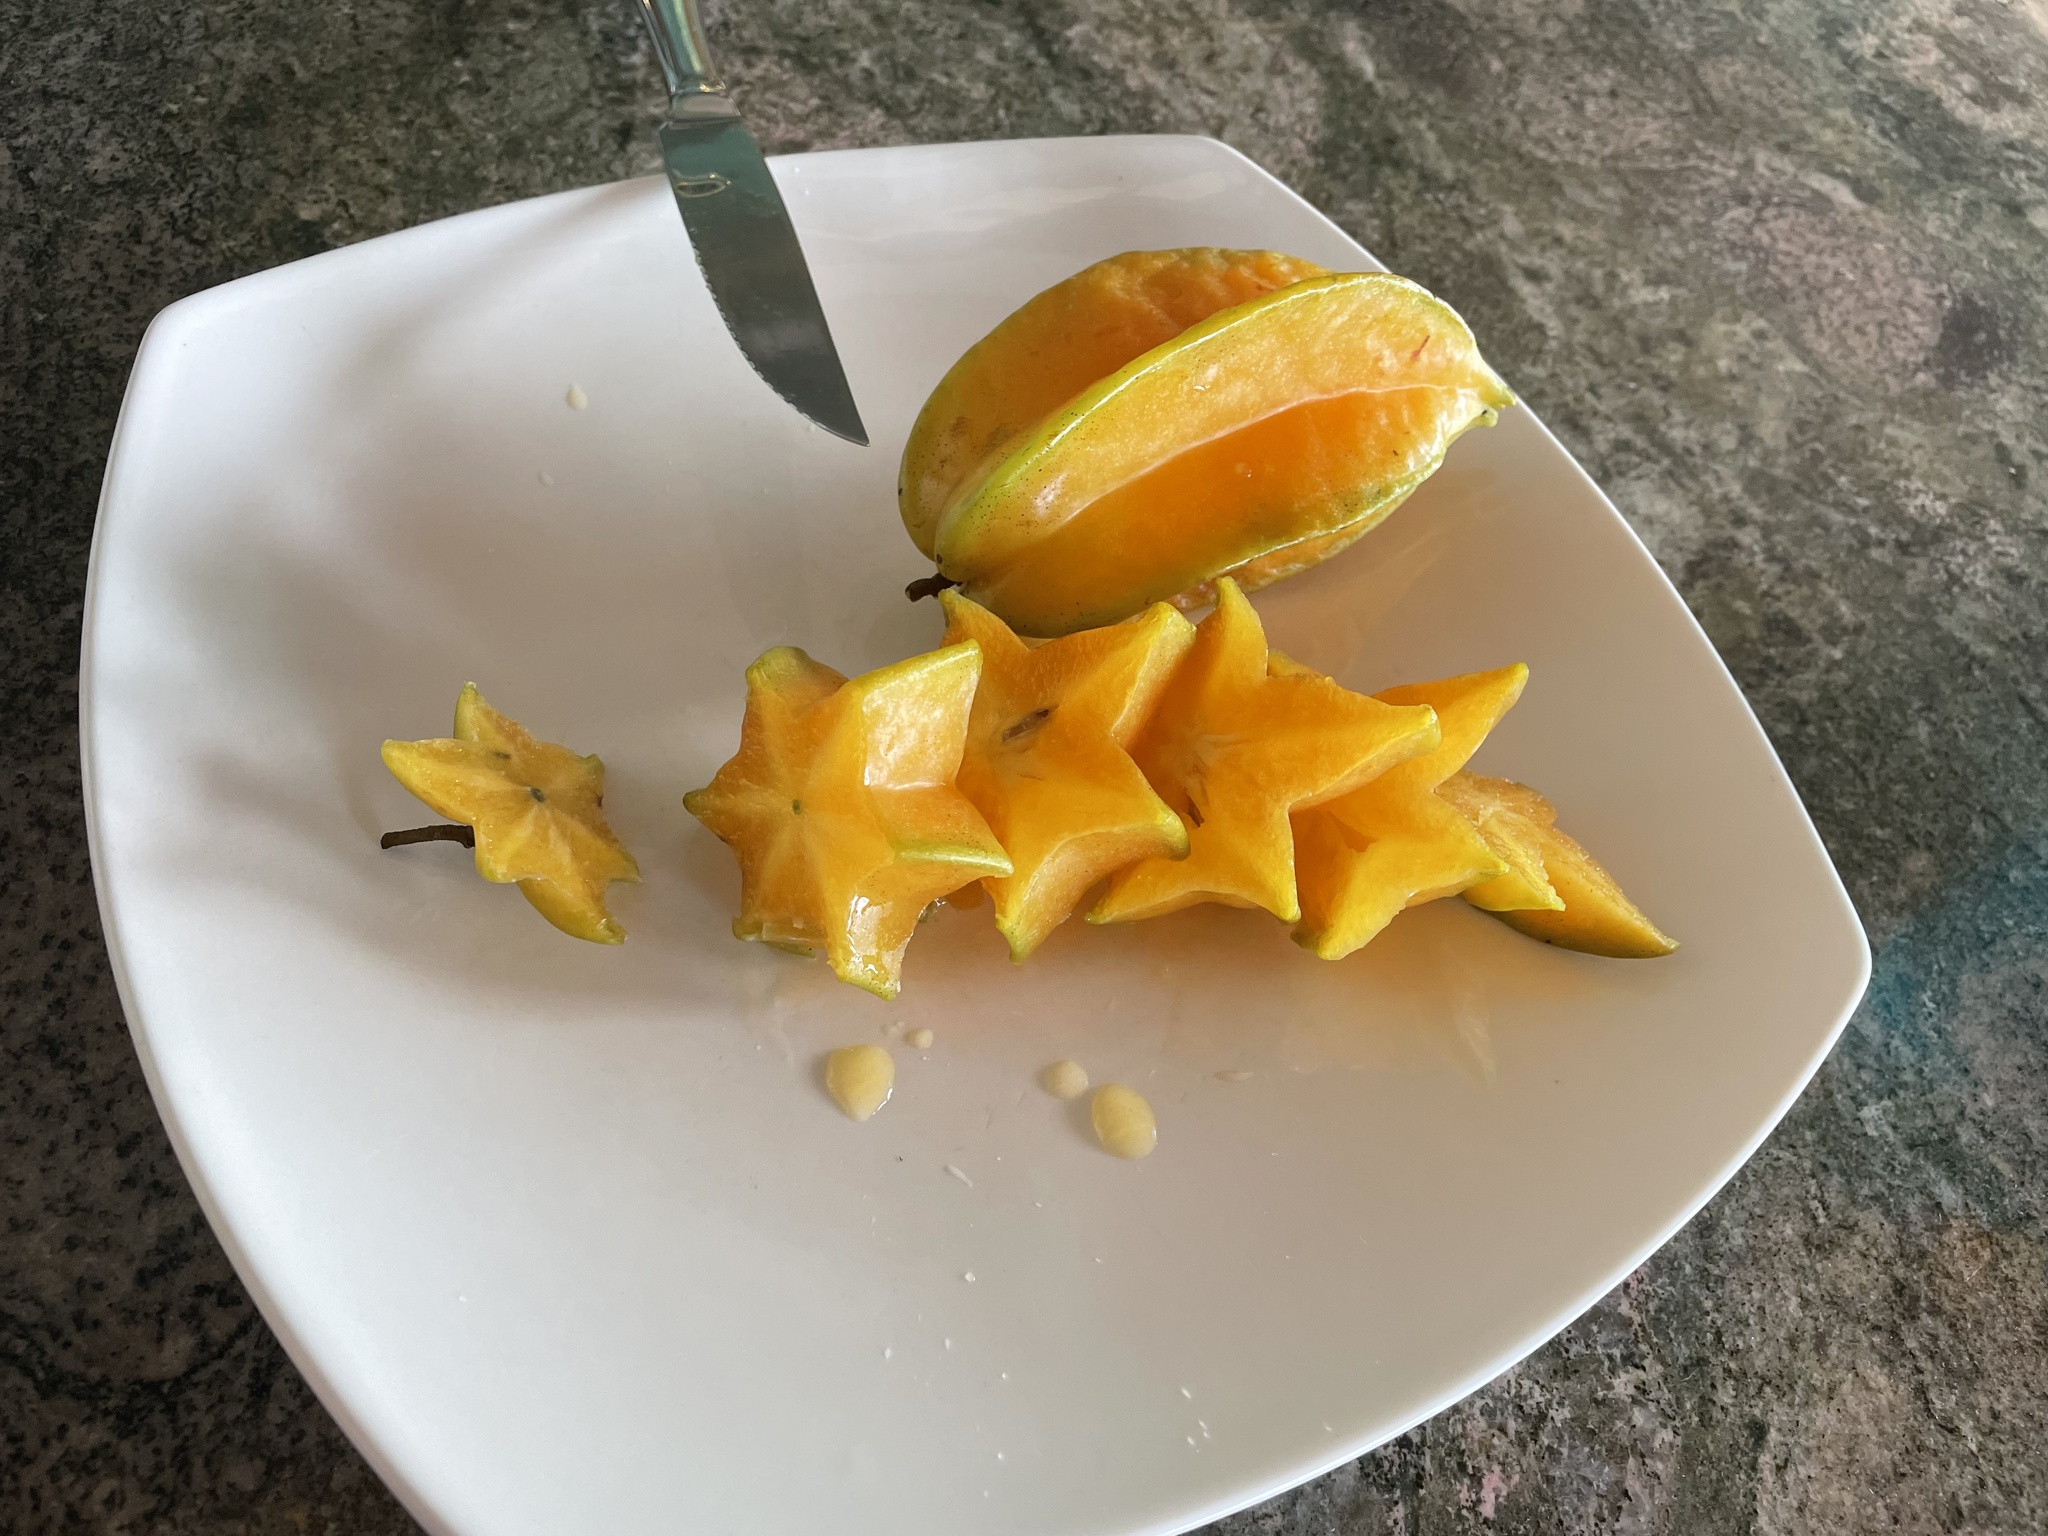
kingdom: Plantae
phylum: Tracheophyta
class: Magnoliopsida
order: Oxalidales
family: Oxalidaceae
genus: Averrhoa
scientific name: Averrhoa carambola
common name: Blimbing
